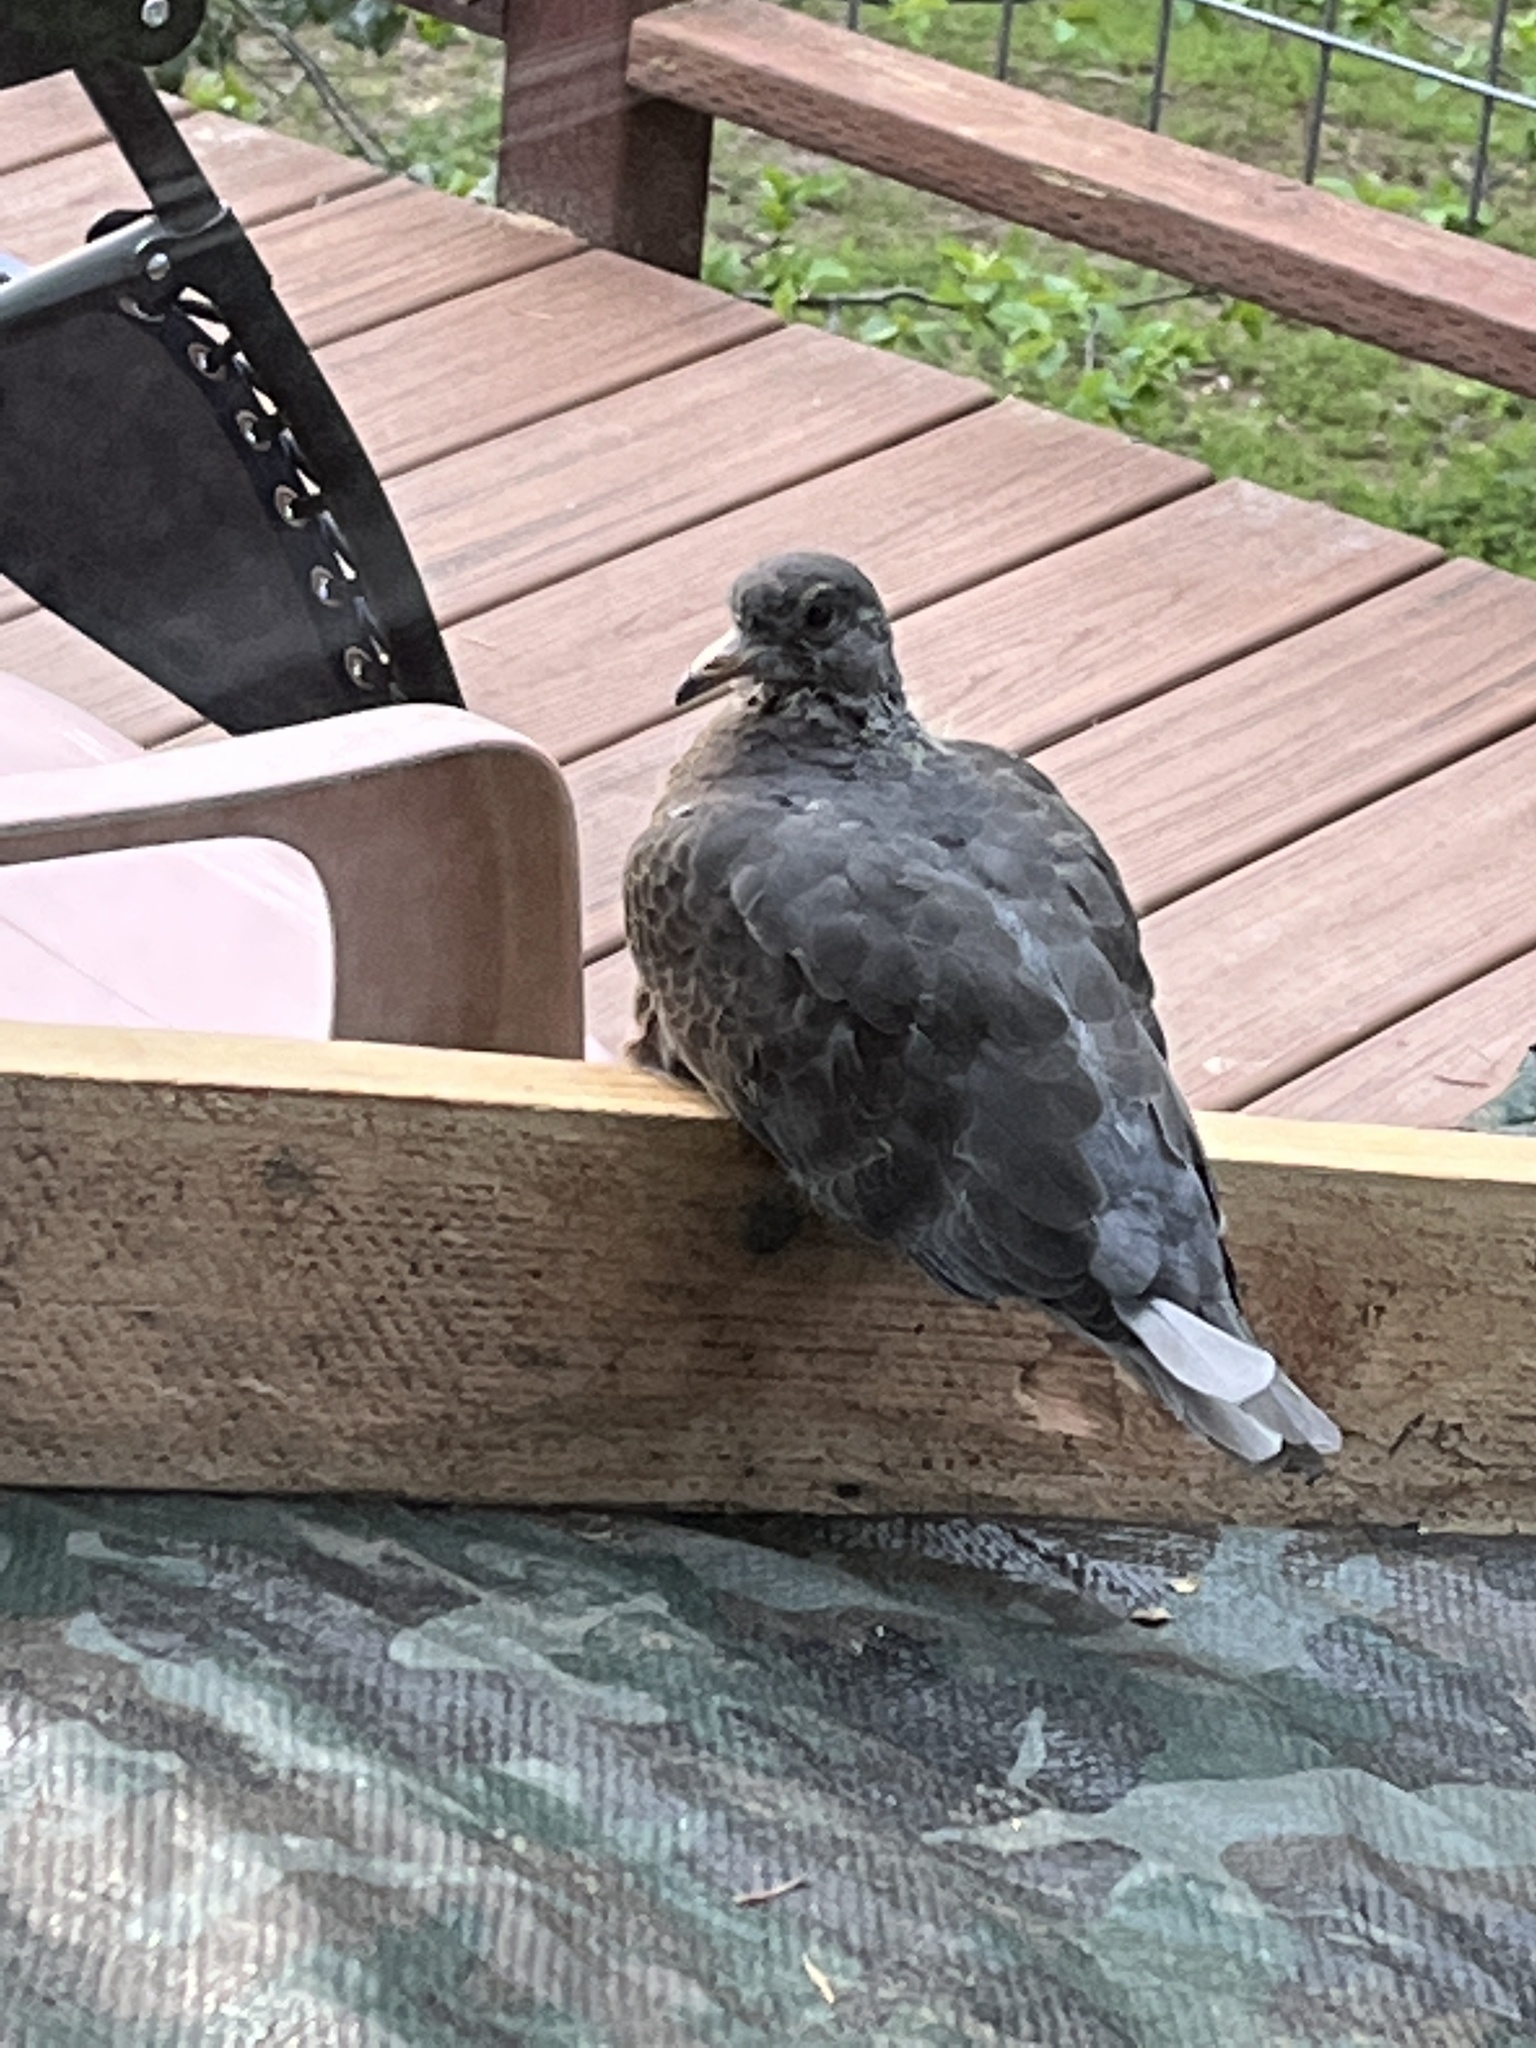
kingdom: Animalia
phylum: Chordata
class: Aves
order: Columbiformes
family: Columbidae
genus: Patagioenas
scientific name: Patagioenas fasciata
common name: Band-tailed pigeon
